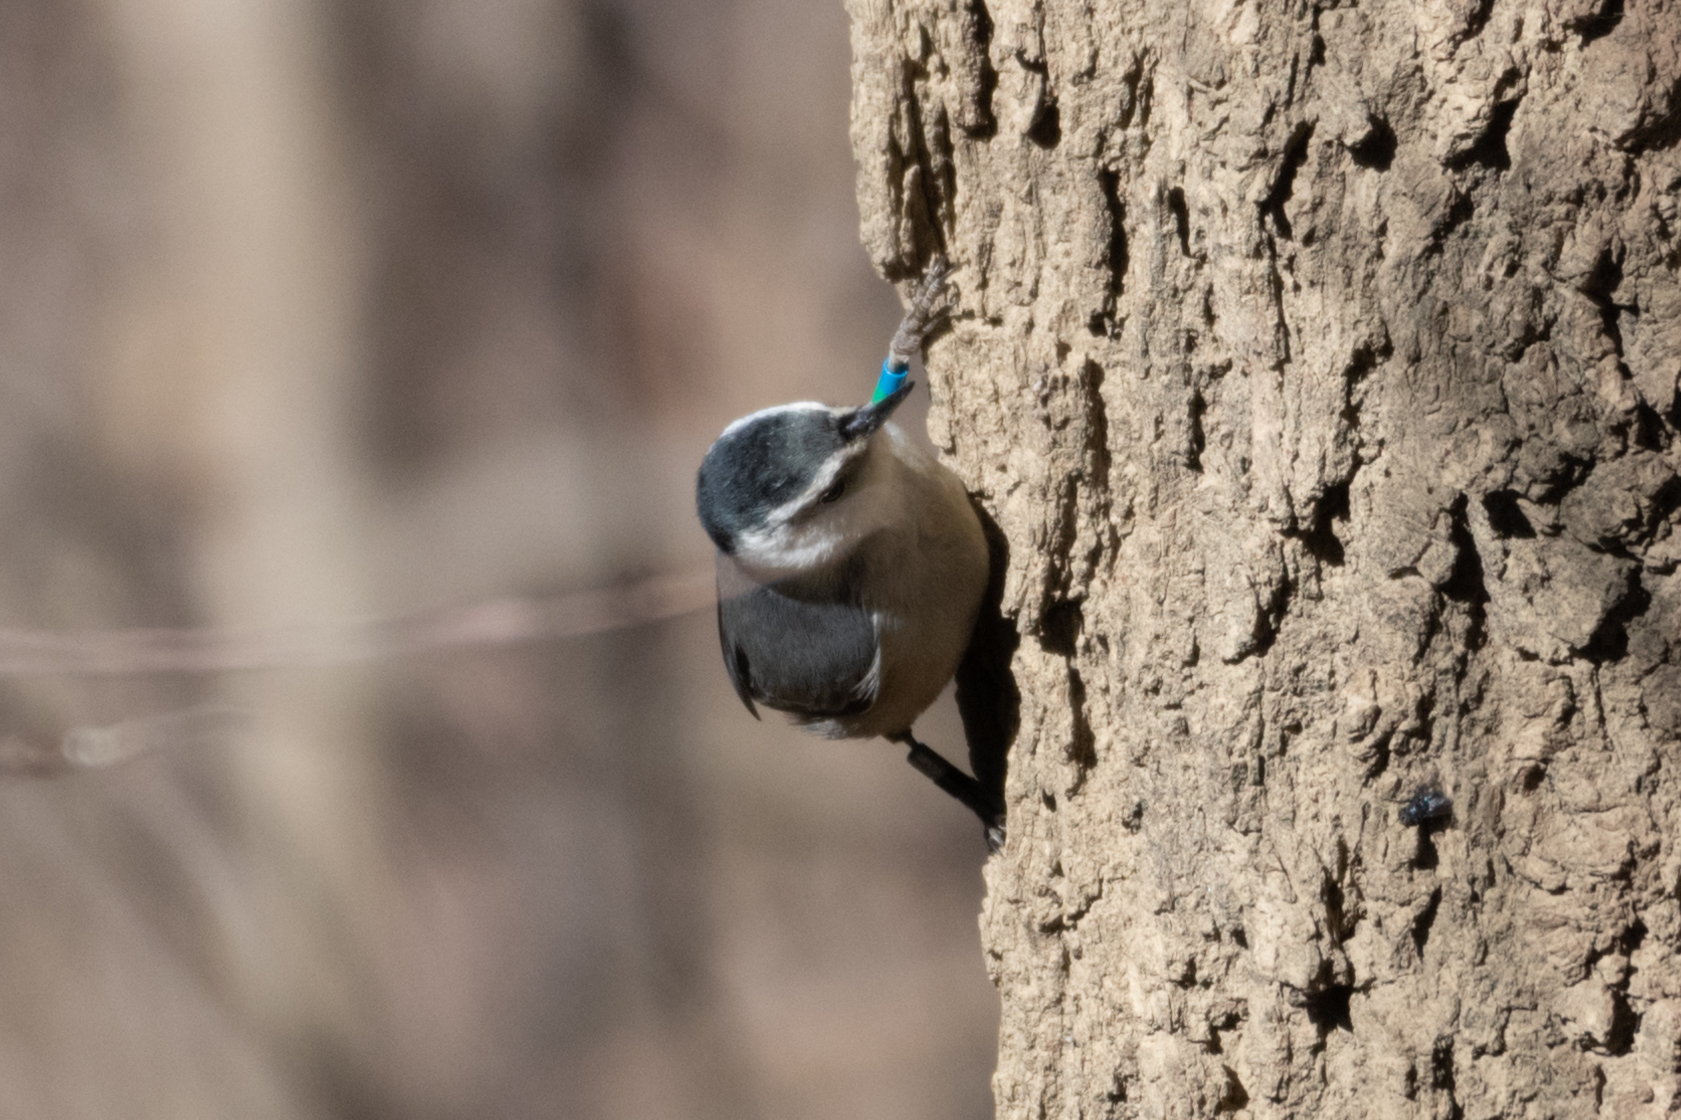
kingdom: Animalia
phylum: Chordata
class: Aves
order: Passeriformes
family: Sittidae
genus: Sitta
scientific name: Sitta carolinensis
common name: White-breasted nuthatch
